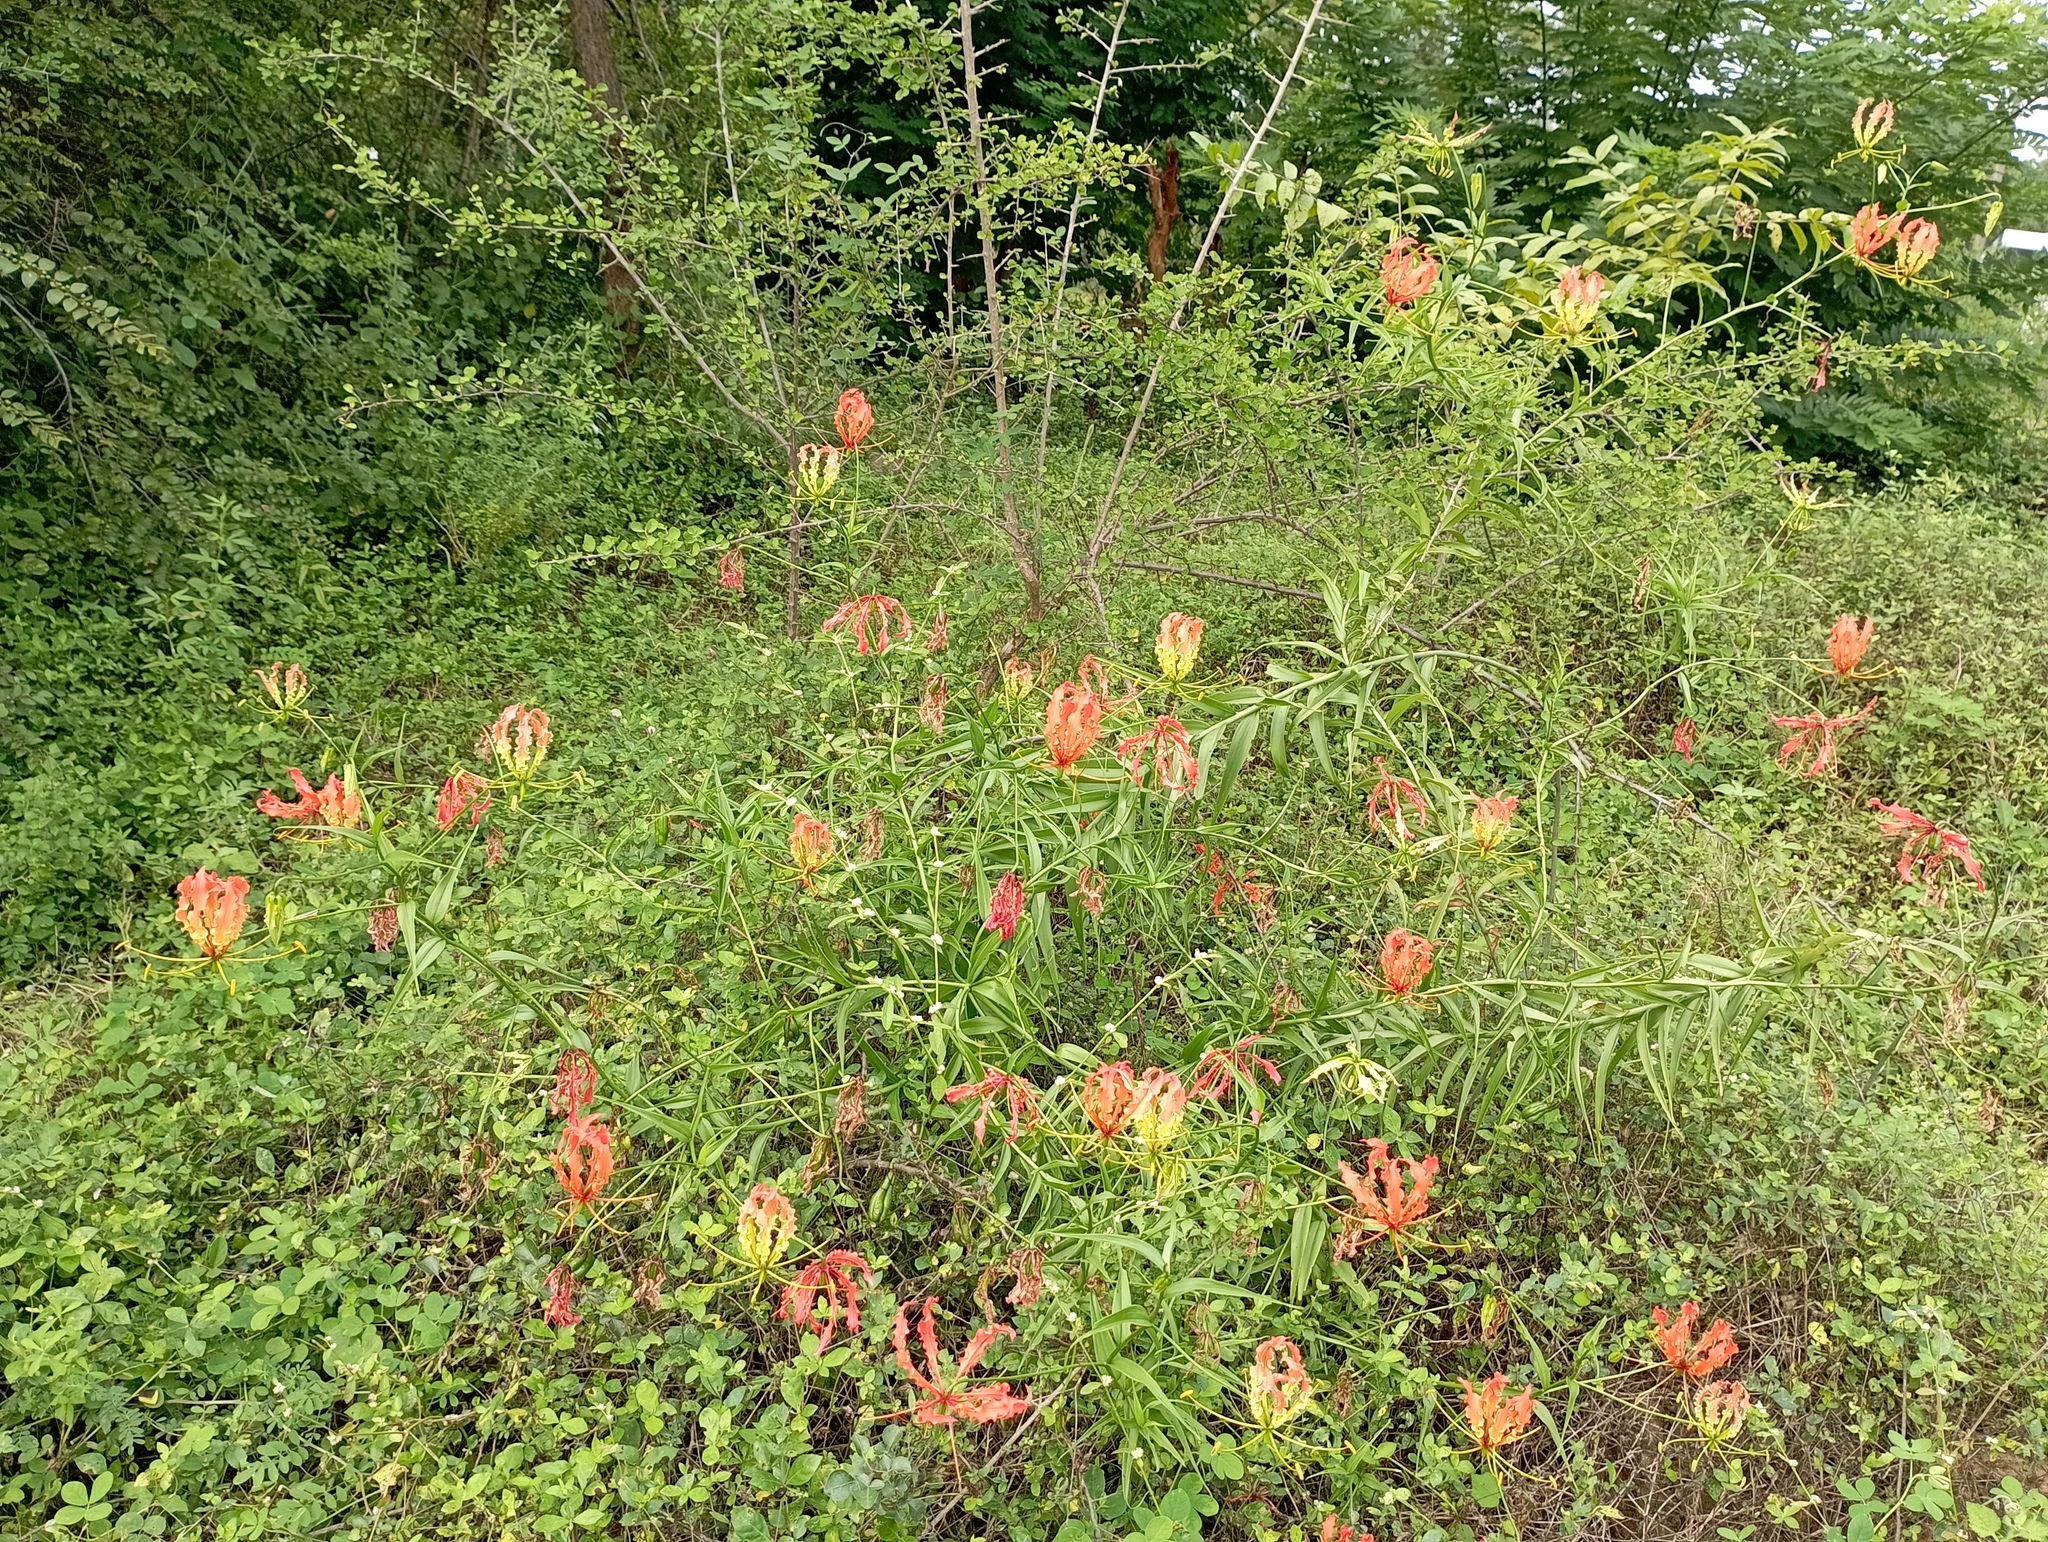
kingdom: Plantae
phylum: Tracheophyta
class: Liliopsida
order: Liliales
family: Colchicaceae
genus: Gloriosa
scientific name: Gloriosa superba
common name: Flame lily
